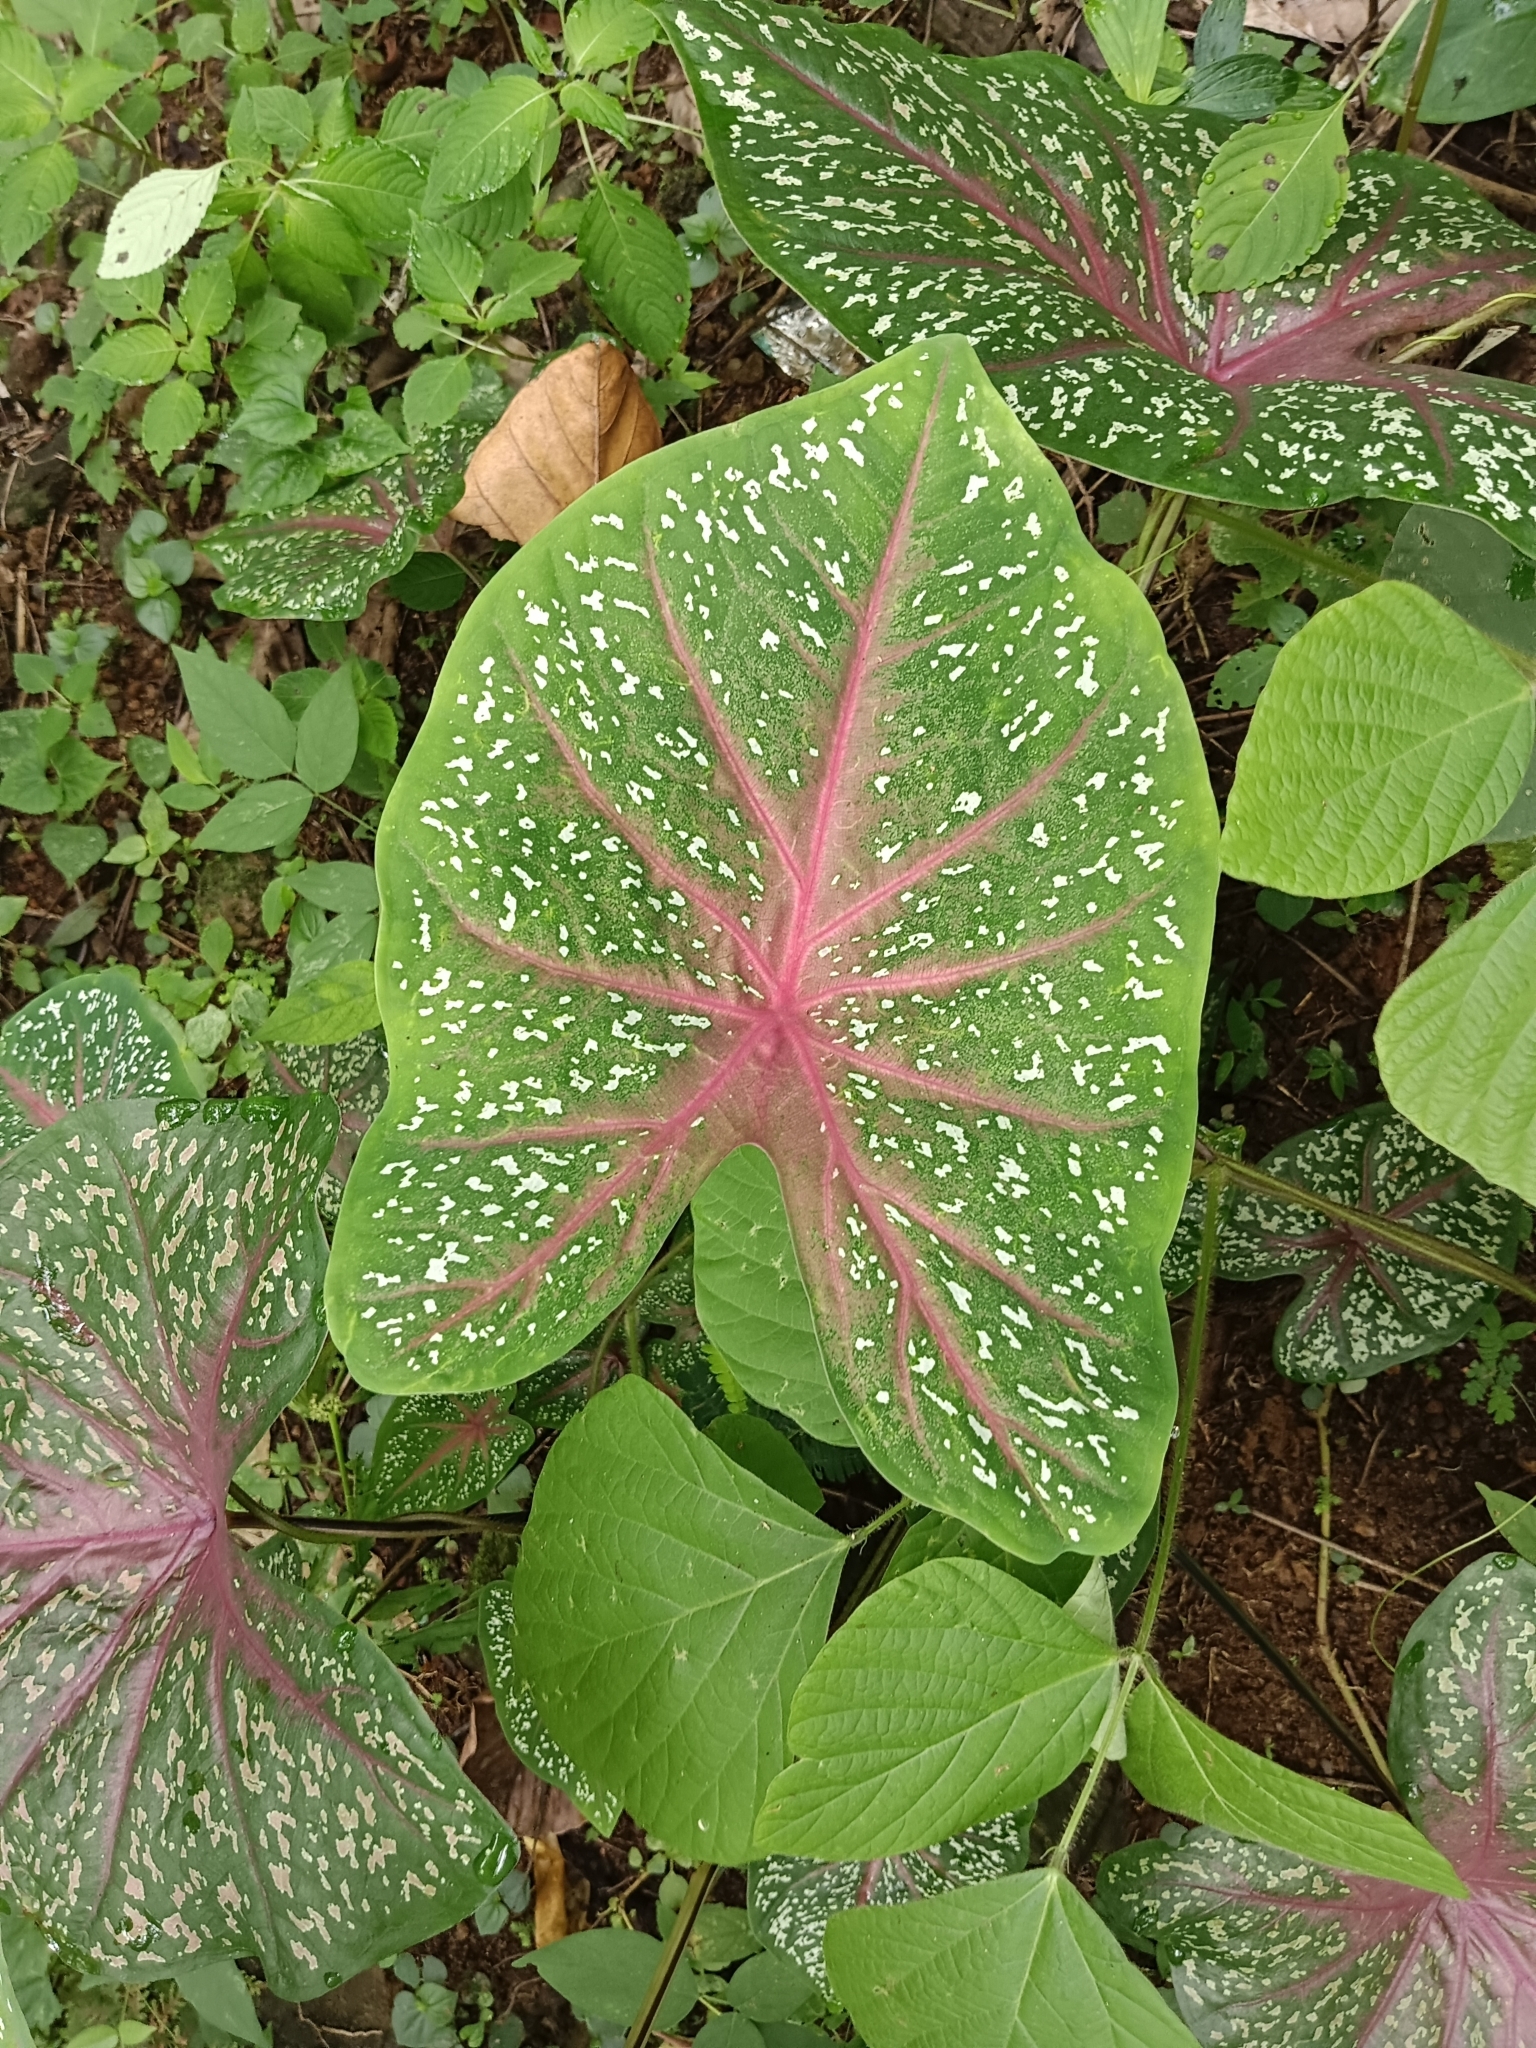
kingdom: Plantae
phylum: Tracheophyta
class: Liliopsida
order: Alismatales
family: Araceae
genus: Caladium
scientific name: Caladium bicolor
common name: Artist's pallet
